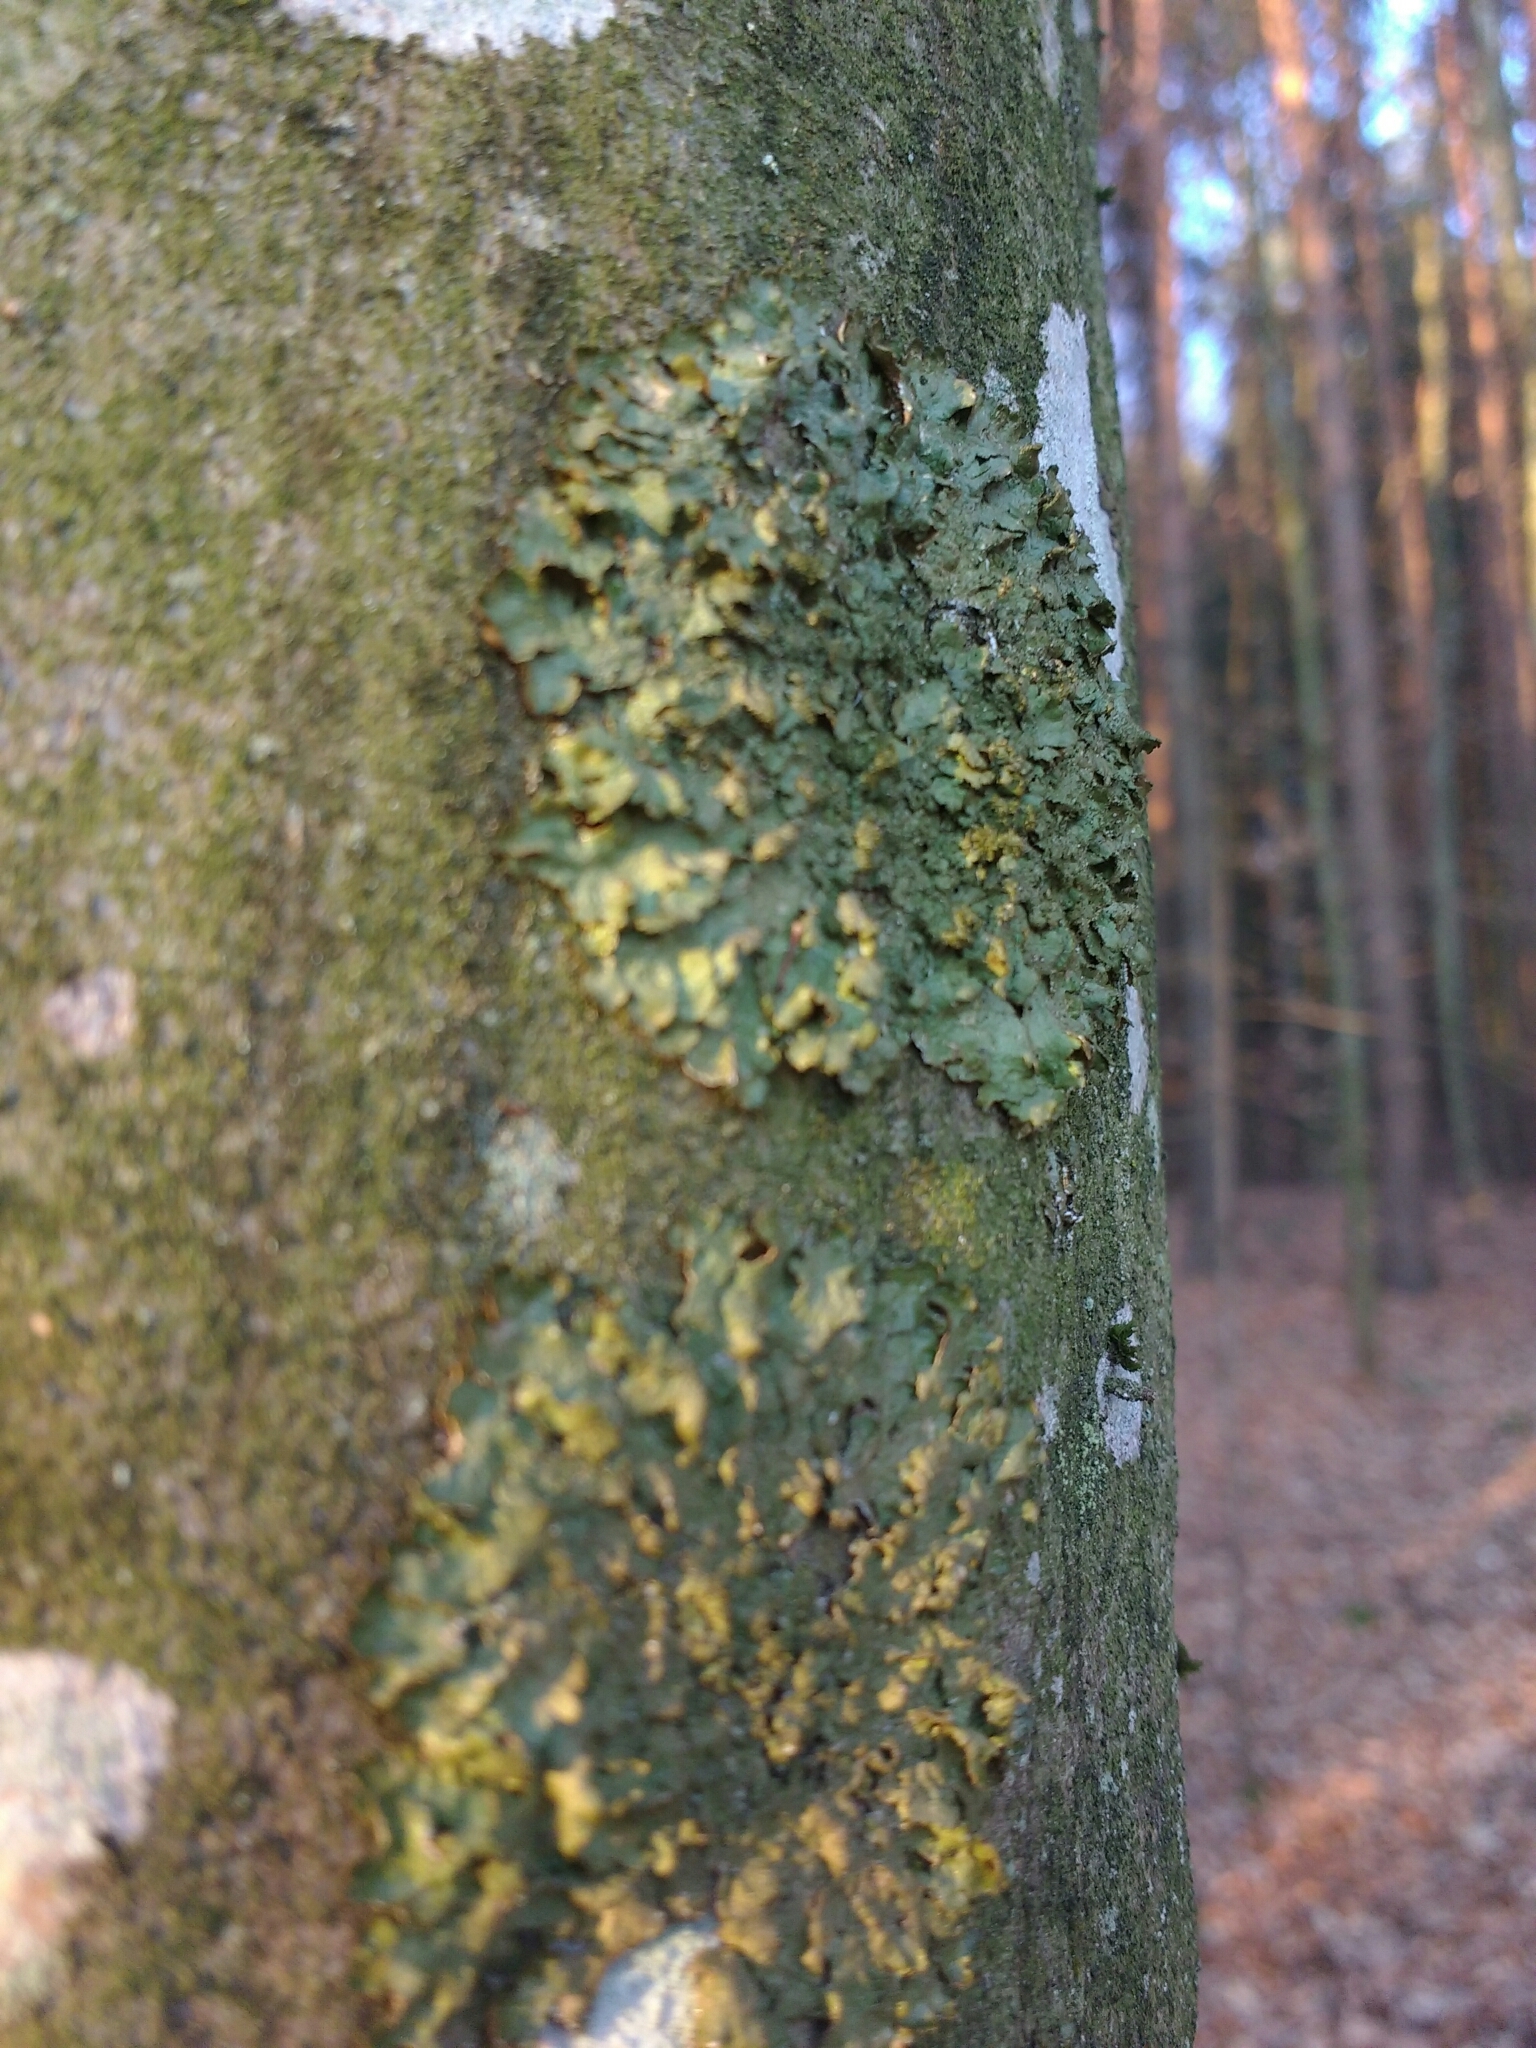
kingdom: Fungi
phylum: Ascomycota
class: Lecanoromycetes
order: Lecanorales
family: Parmeliaceae
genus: Melanelixia
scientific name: Melanelixia glabratula
